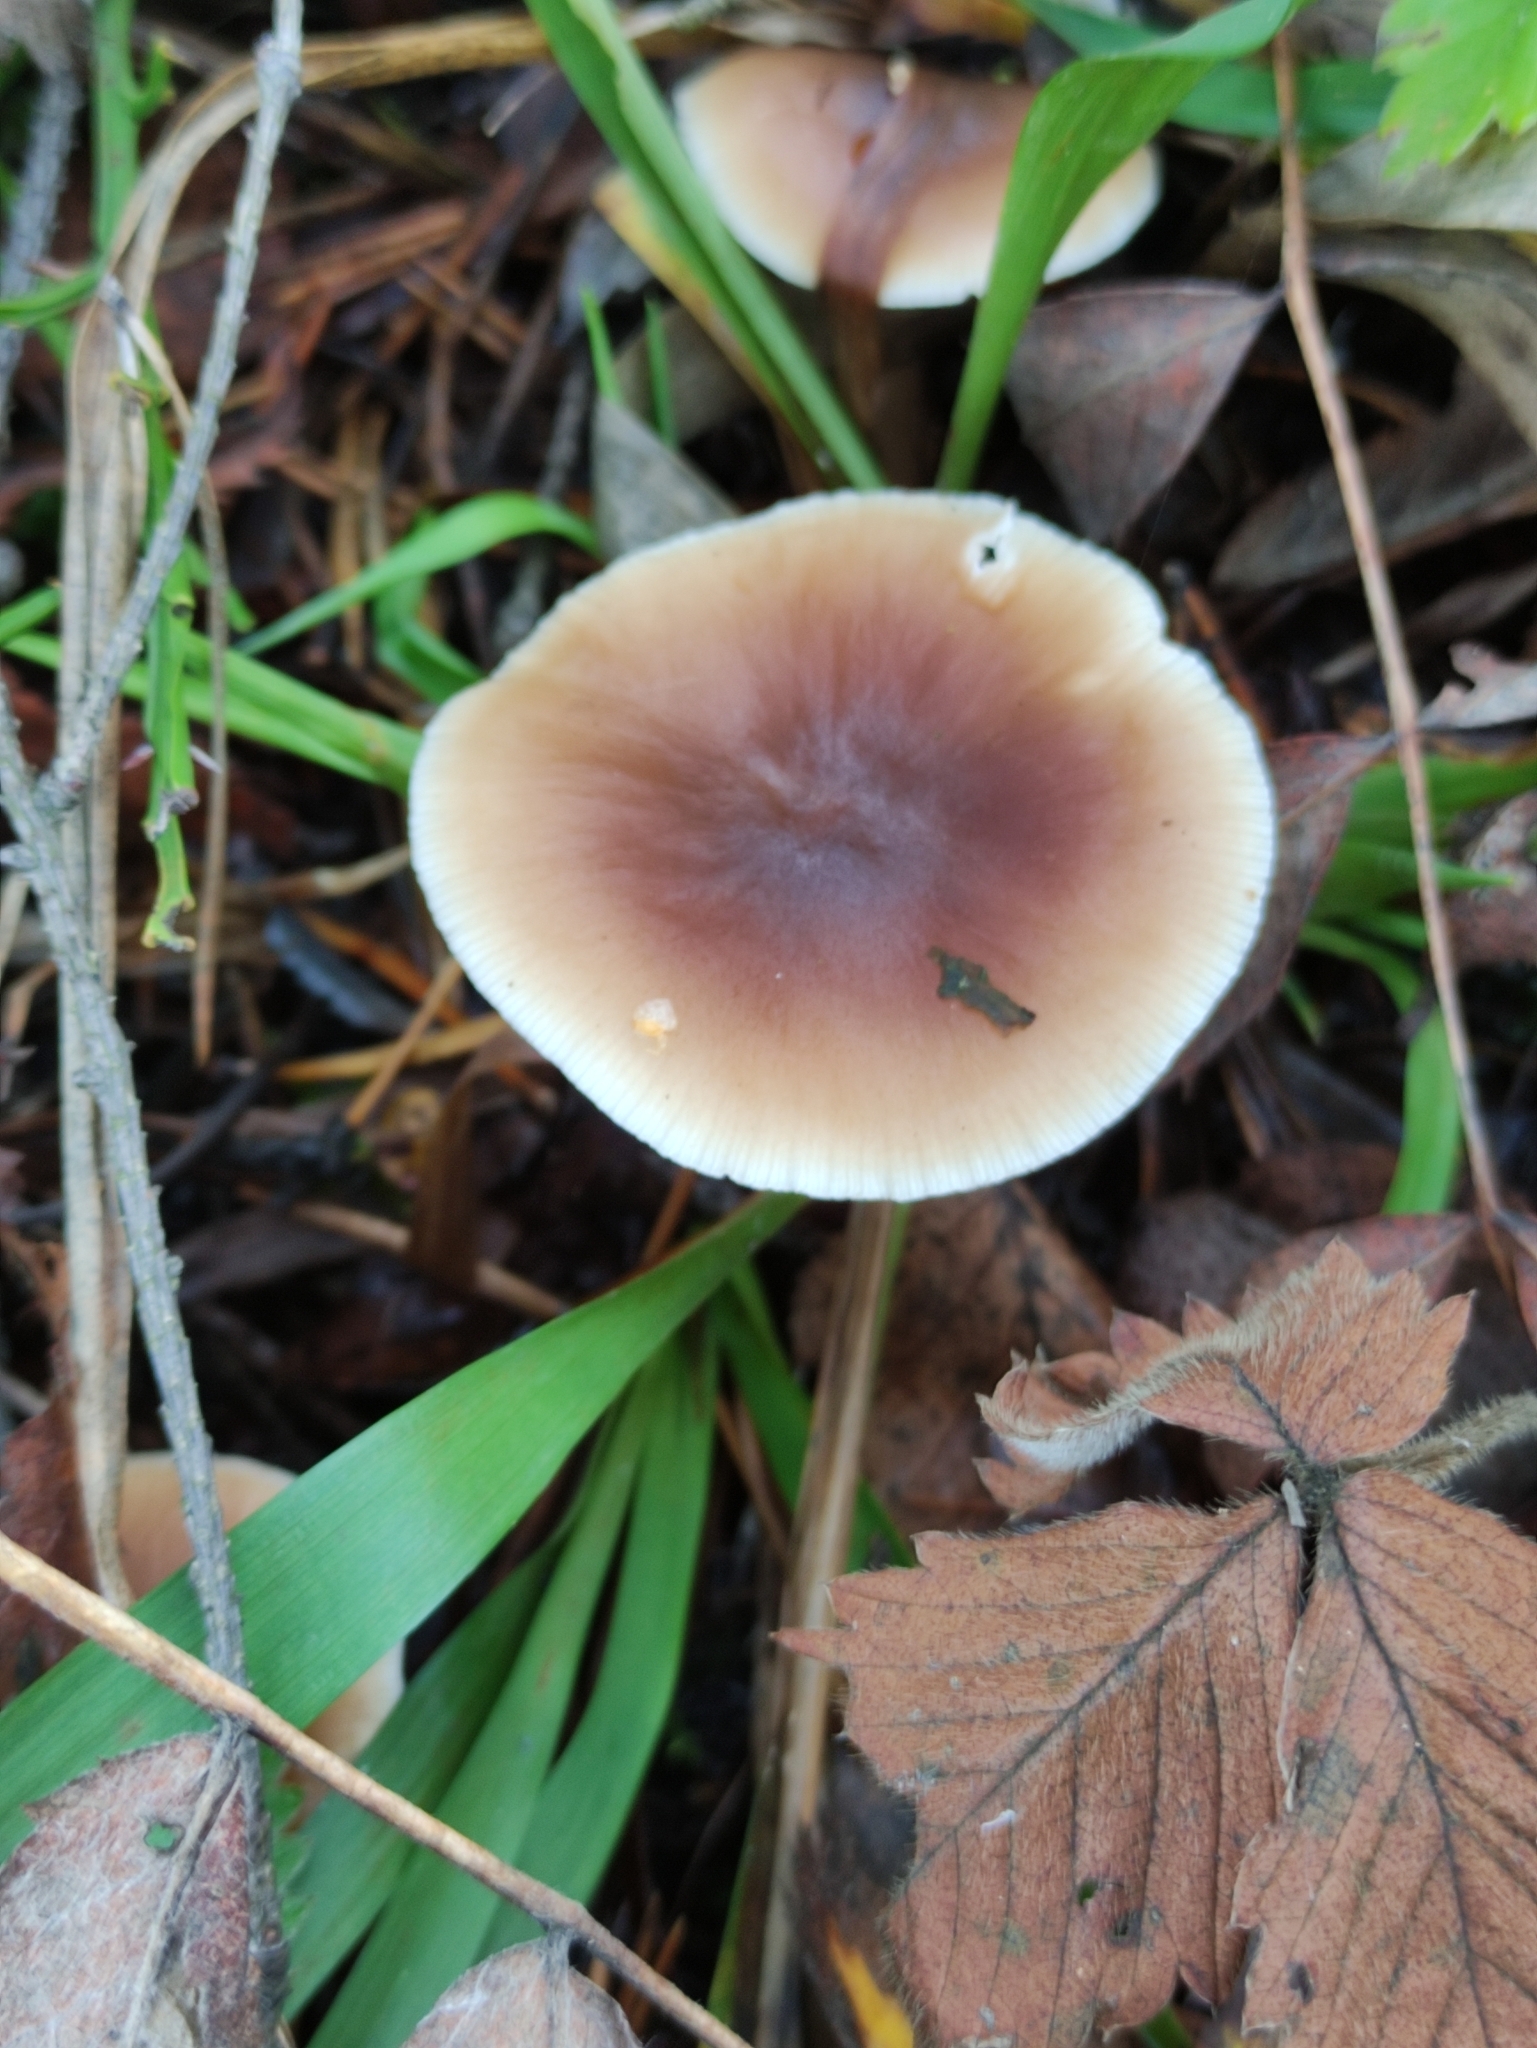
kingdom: Fungi
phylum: Basidiomycota
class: Agaricomycetes
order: Agaricales
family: Omphalotaceae
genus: Rhodocollybia
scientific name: Rhodocollybia butyracea
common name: Butter cap
